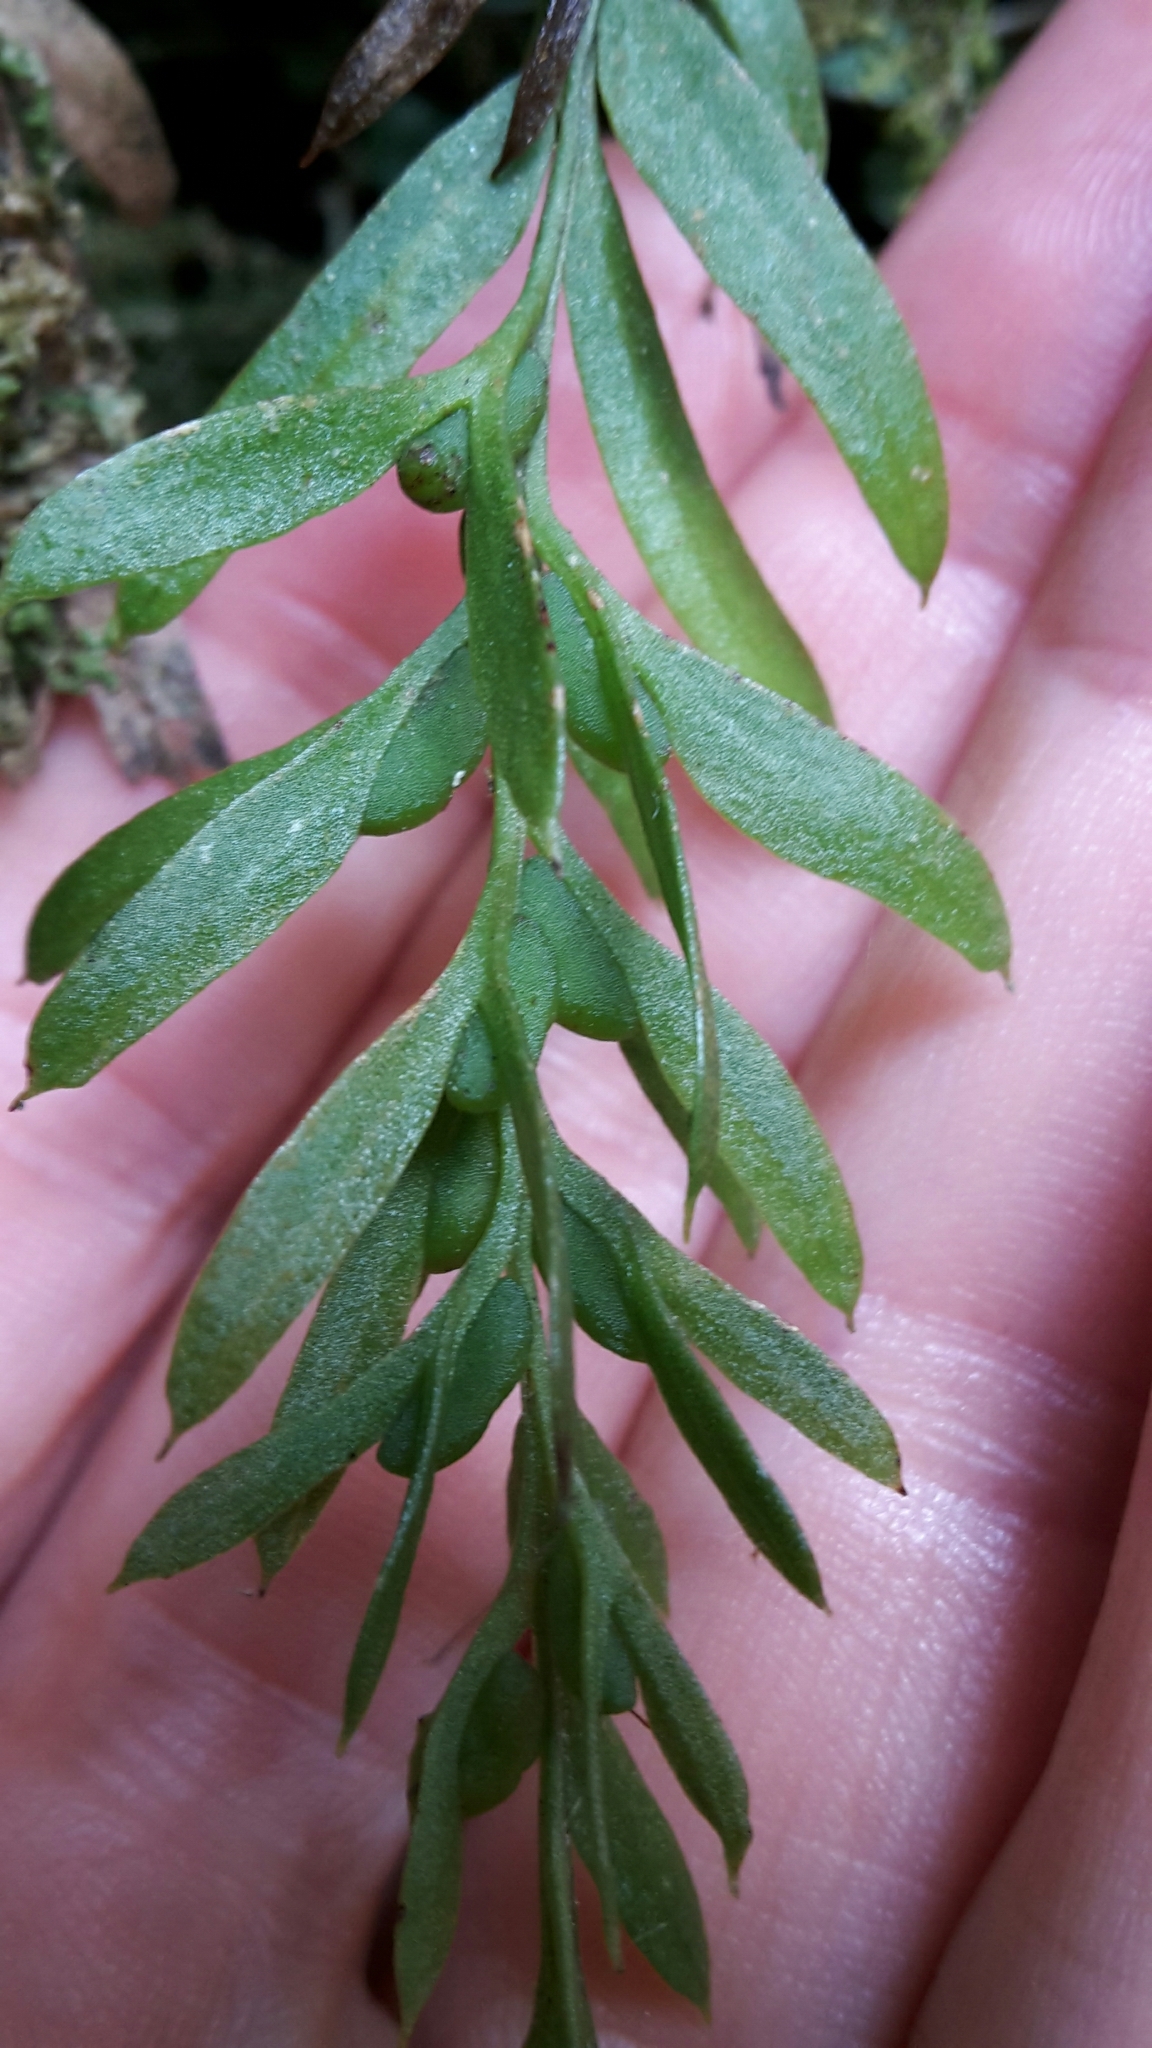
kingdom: Plantae
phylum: Tracheophyta
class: Polypodiopsida
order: Psilotales
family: Psilotaceae
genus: Tmesipteris
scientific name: Tmesipteris elongata
